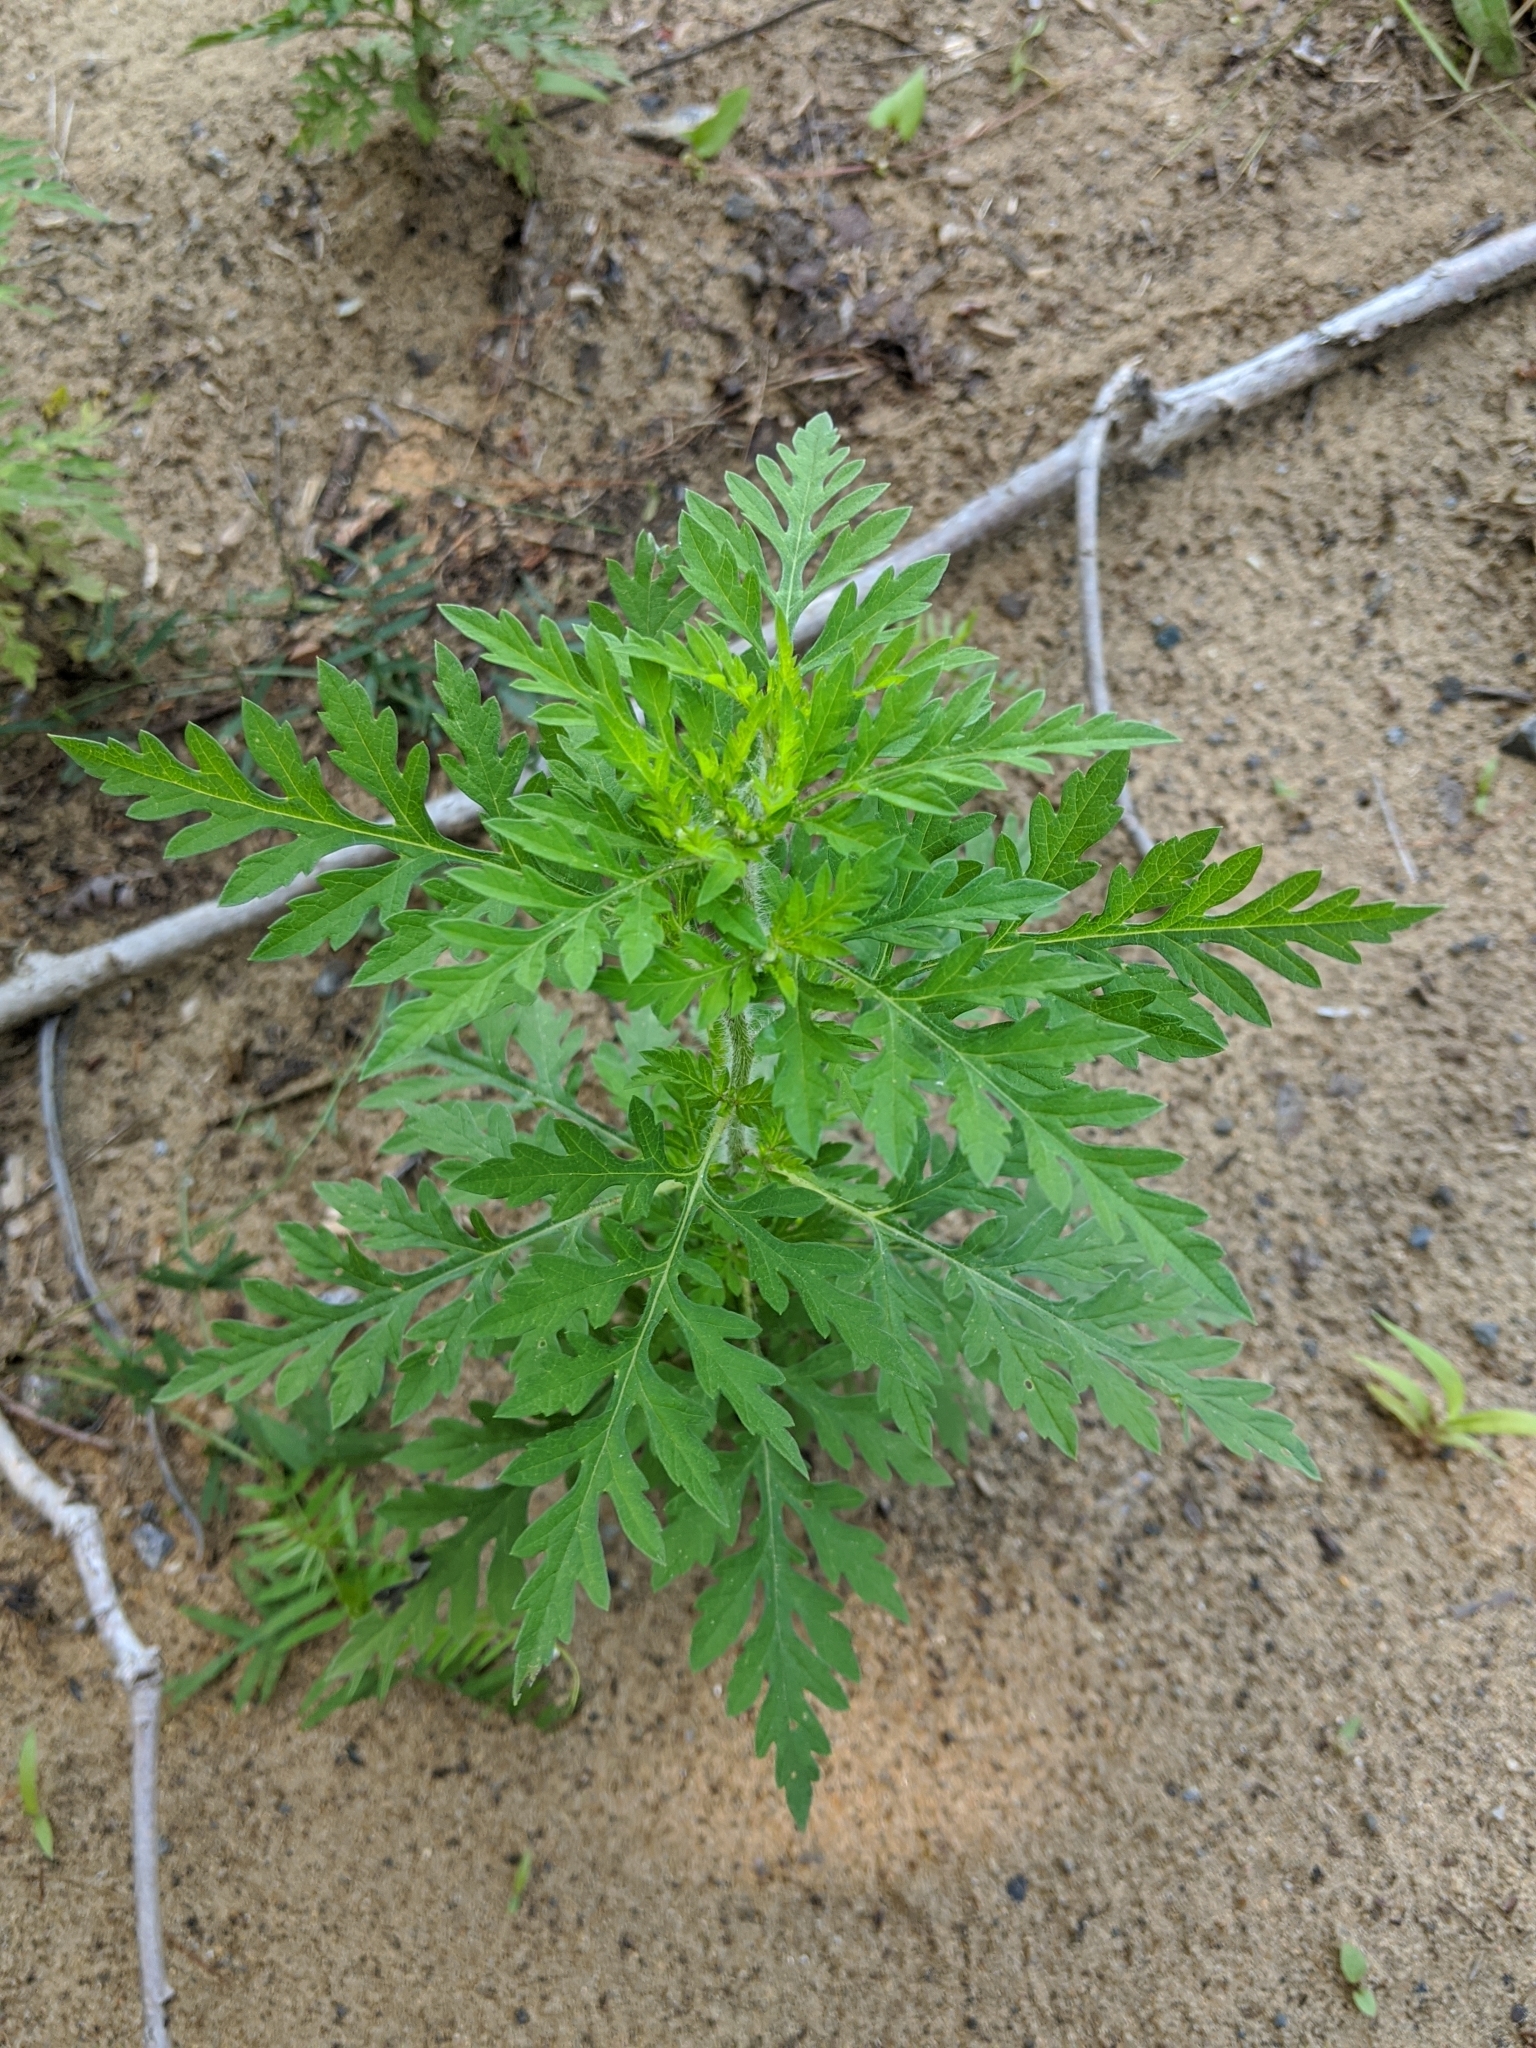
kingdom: Plantae
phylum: Tracheophyta
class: Magnoliopsida
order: Asterales
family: Asteraceae
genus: Ambrosia
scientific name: Ambrosia artemisiifolia
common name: Annual ragweed
